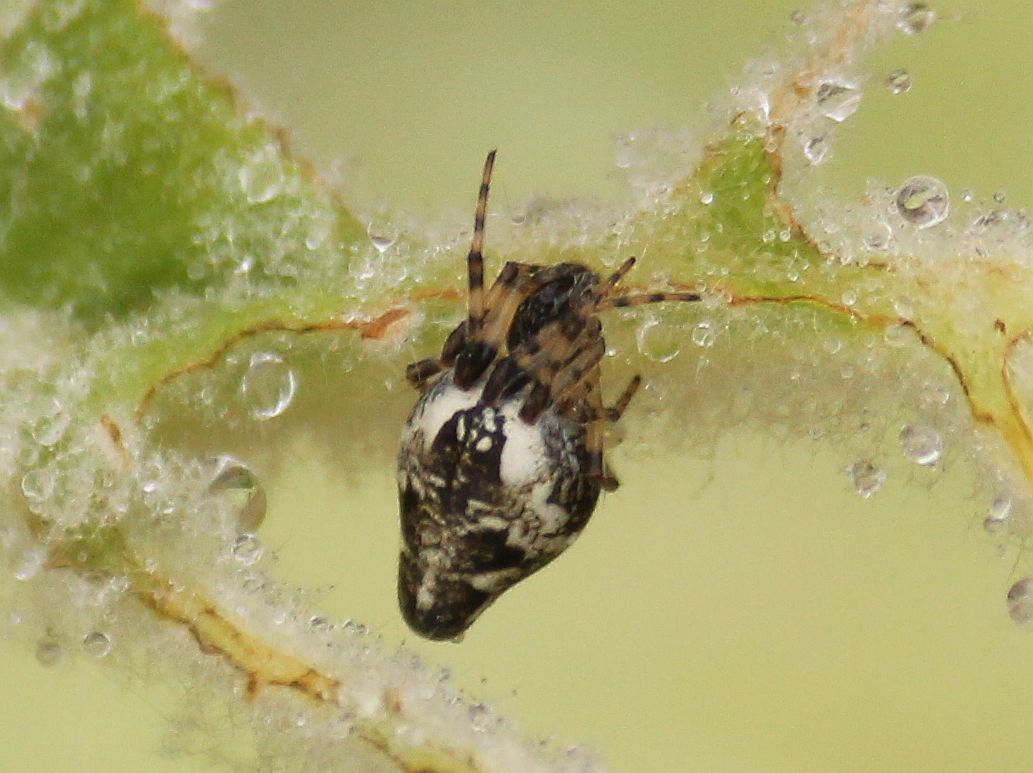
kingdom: Animalia
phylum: Arthropoda
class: Arachnida
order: Araneae
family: Araneidae
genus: Cyclosa
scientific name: Cyclosa conica
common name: Conical trashline orbweaver
